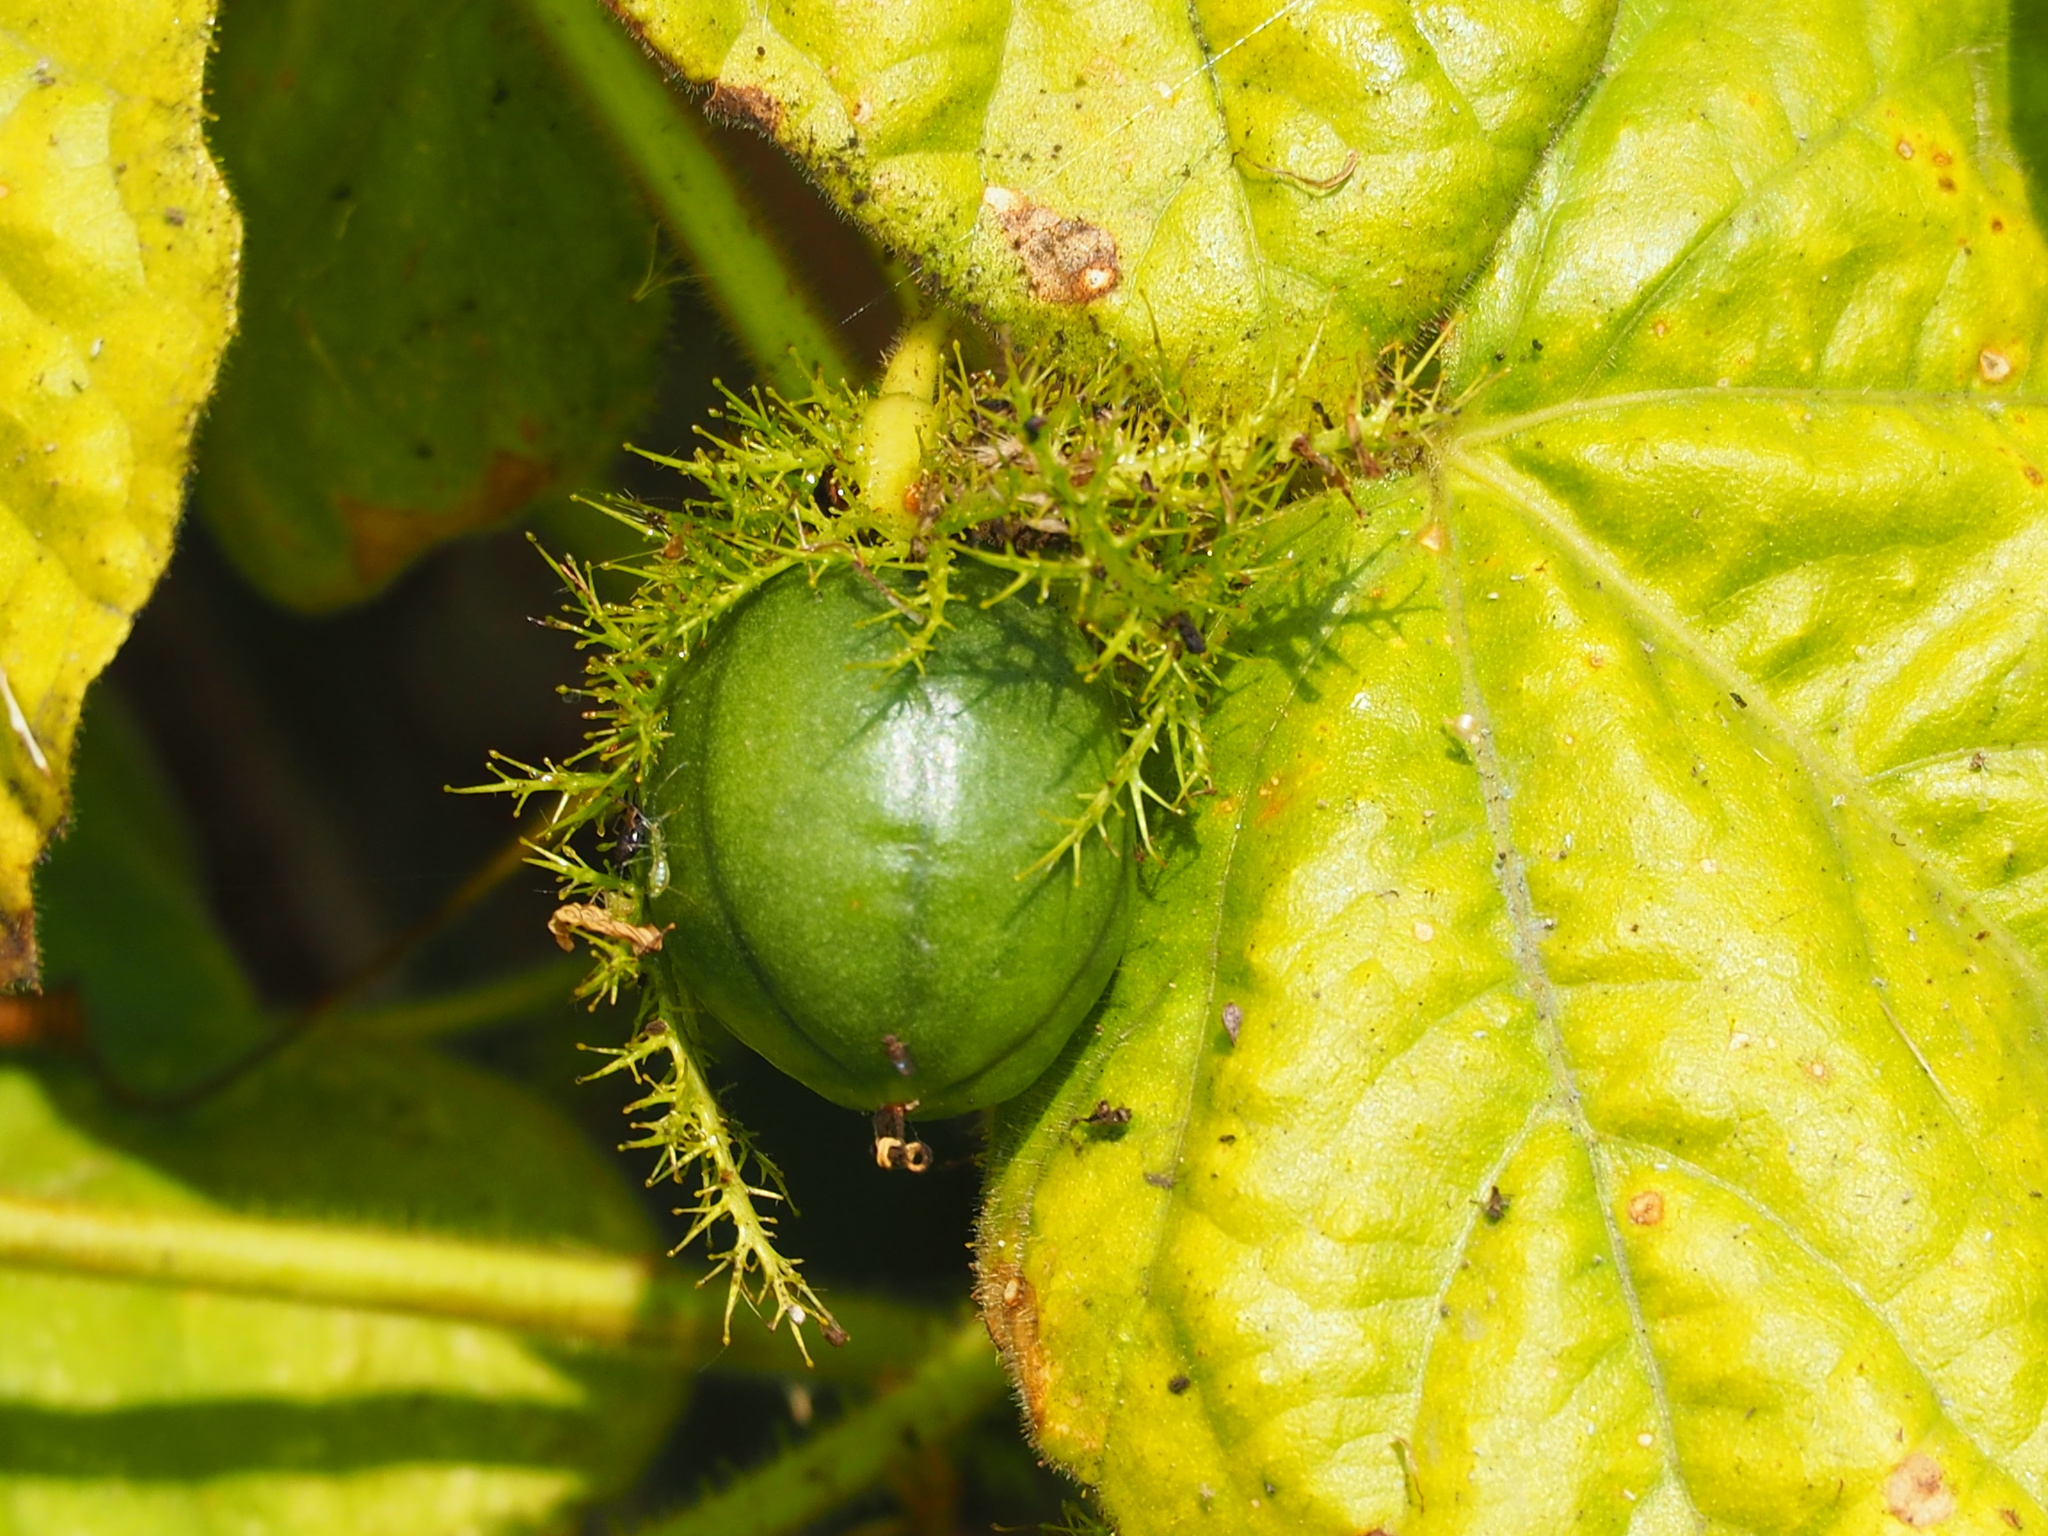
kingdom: Plantae
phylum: Tracheophyta
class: Magnoliopsida
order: Malpighiales
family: Passifloraceae
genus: Passiflora
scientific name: Passiflora vesicaria
